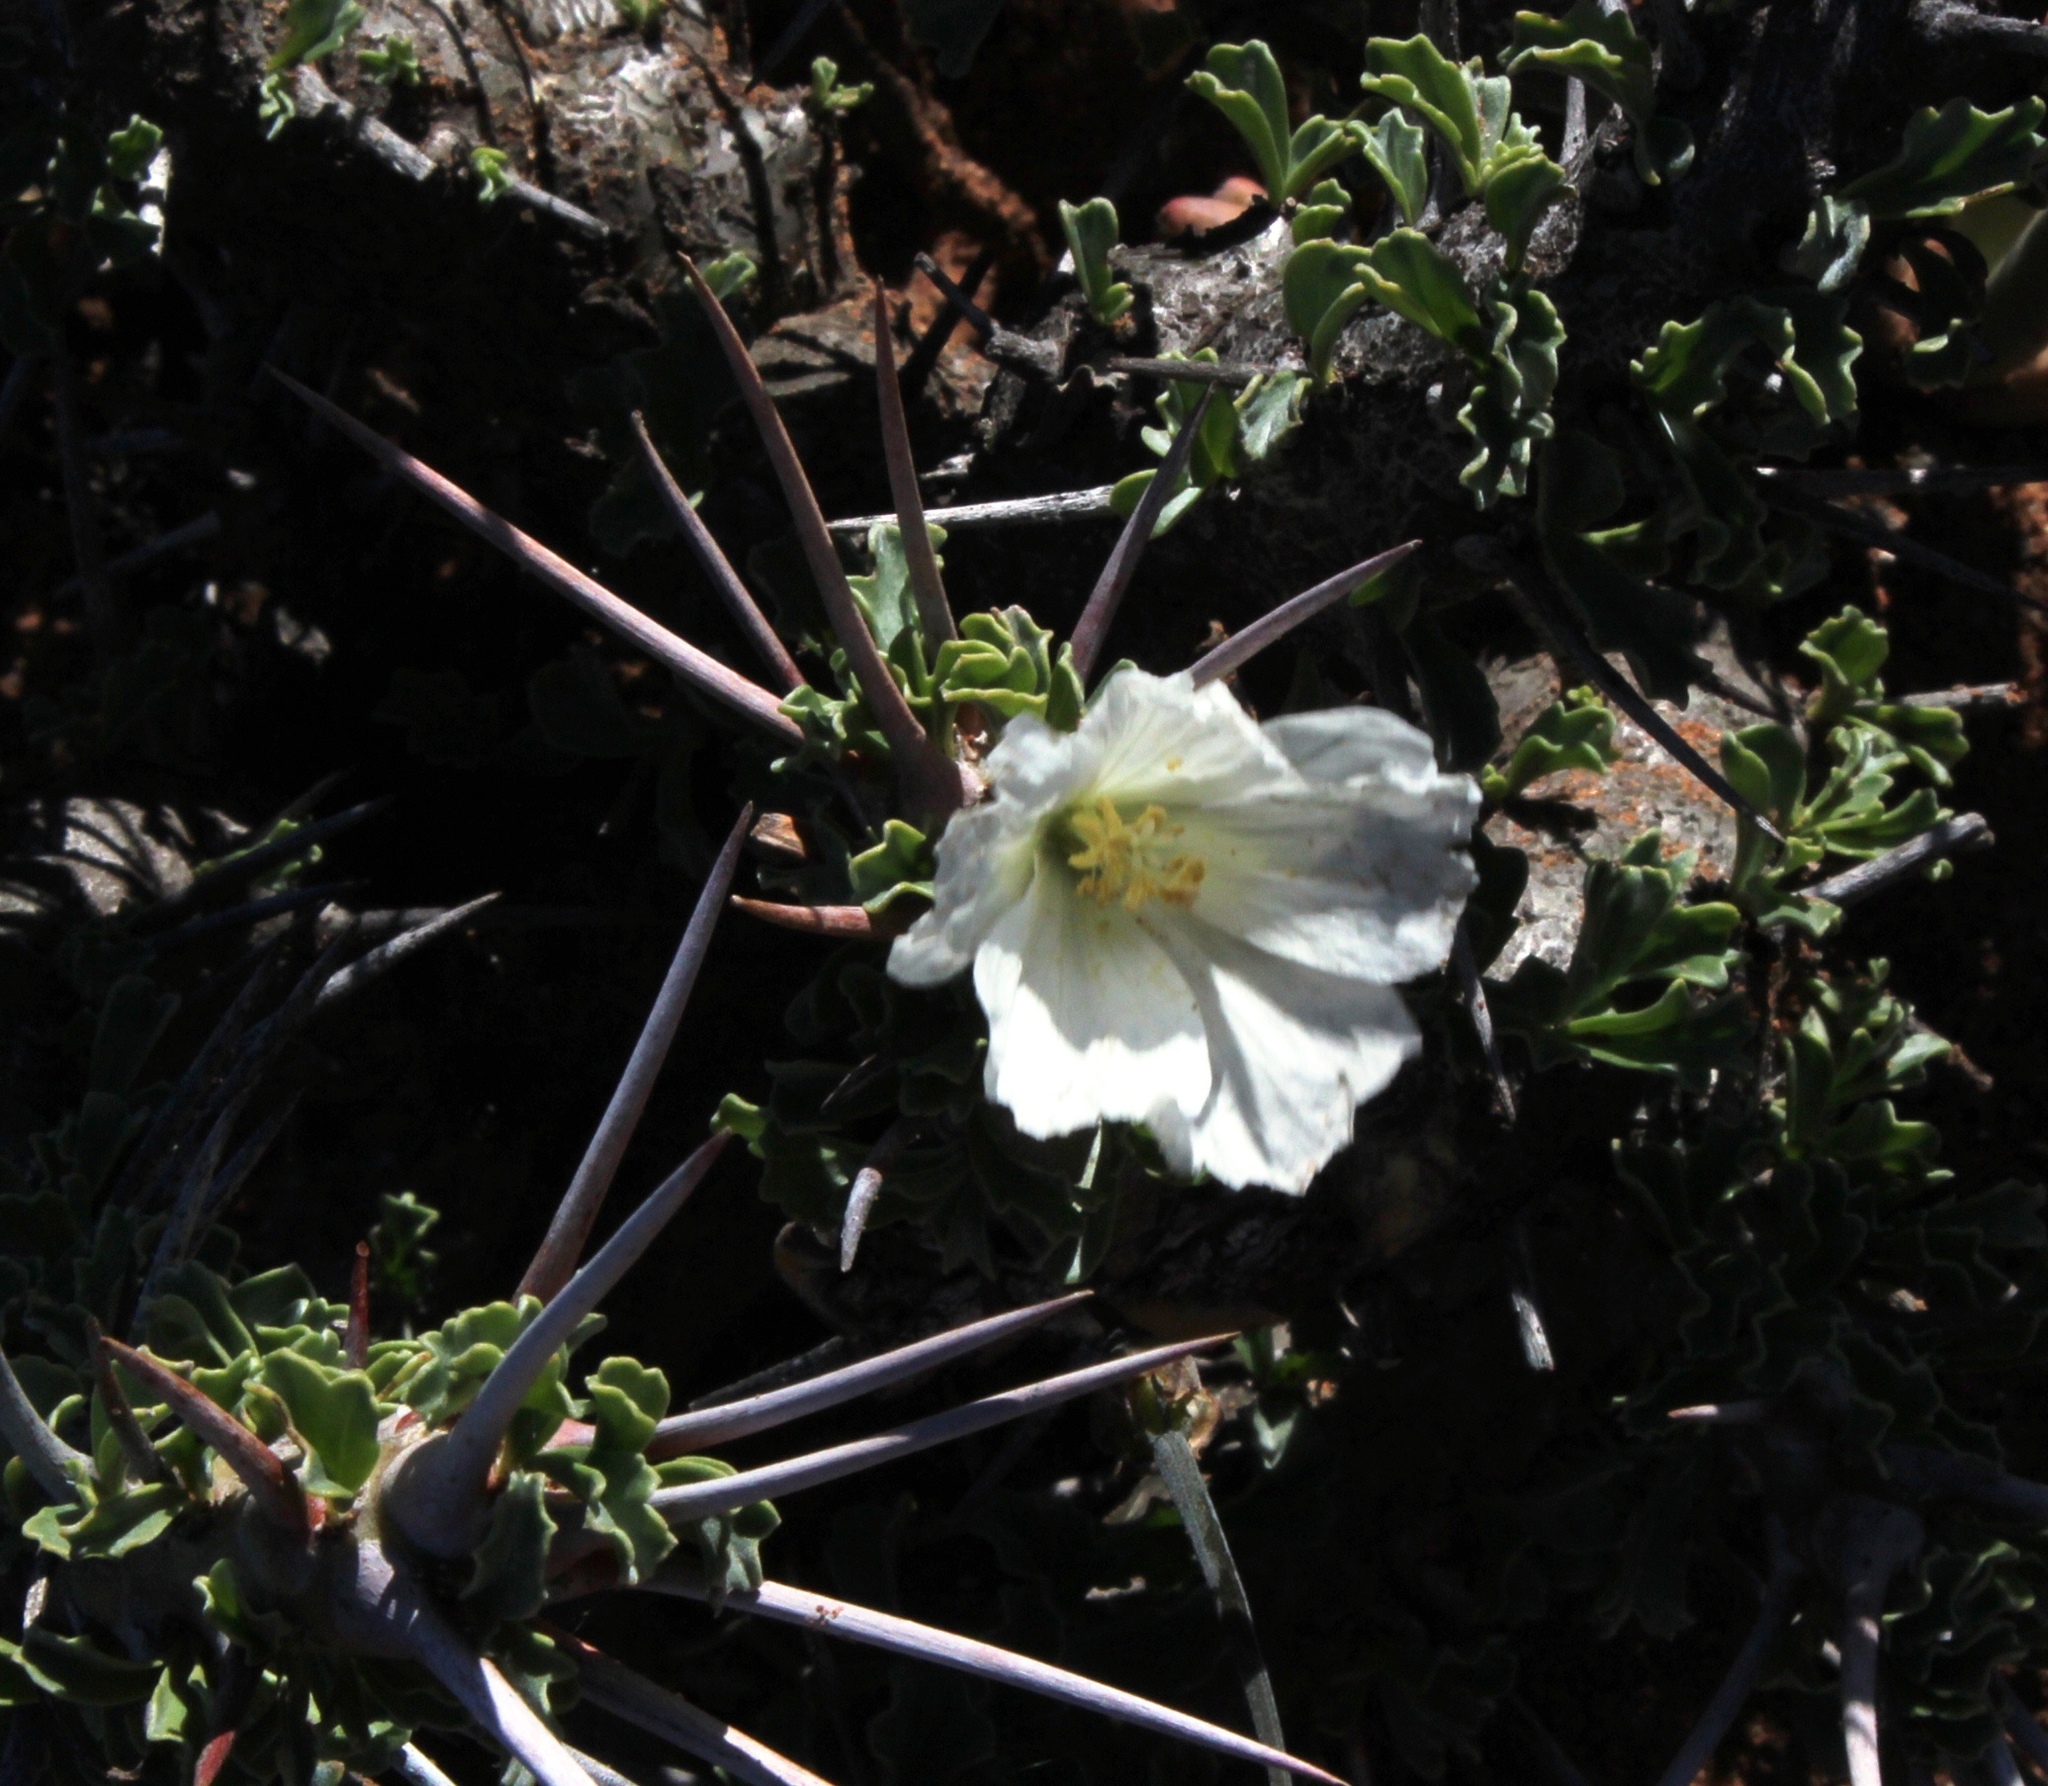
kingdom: Plantae
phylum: Tracheophyta
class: Magnoliopsida
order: Geraniales
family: Geraniaceae
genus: Monsonia
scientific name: Monsonia crassicaulis
